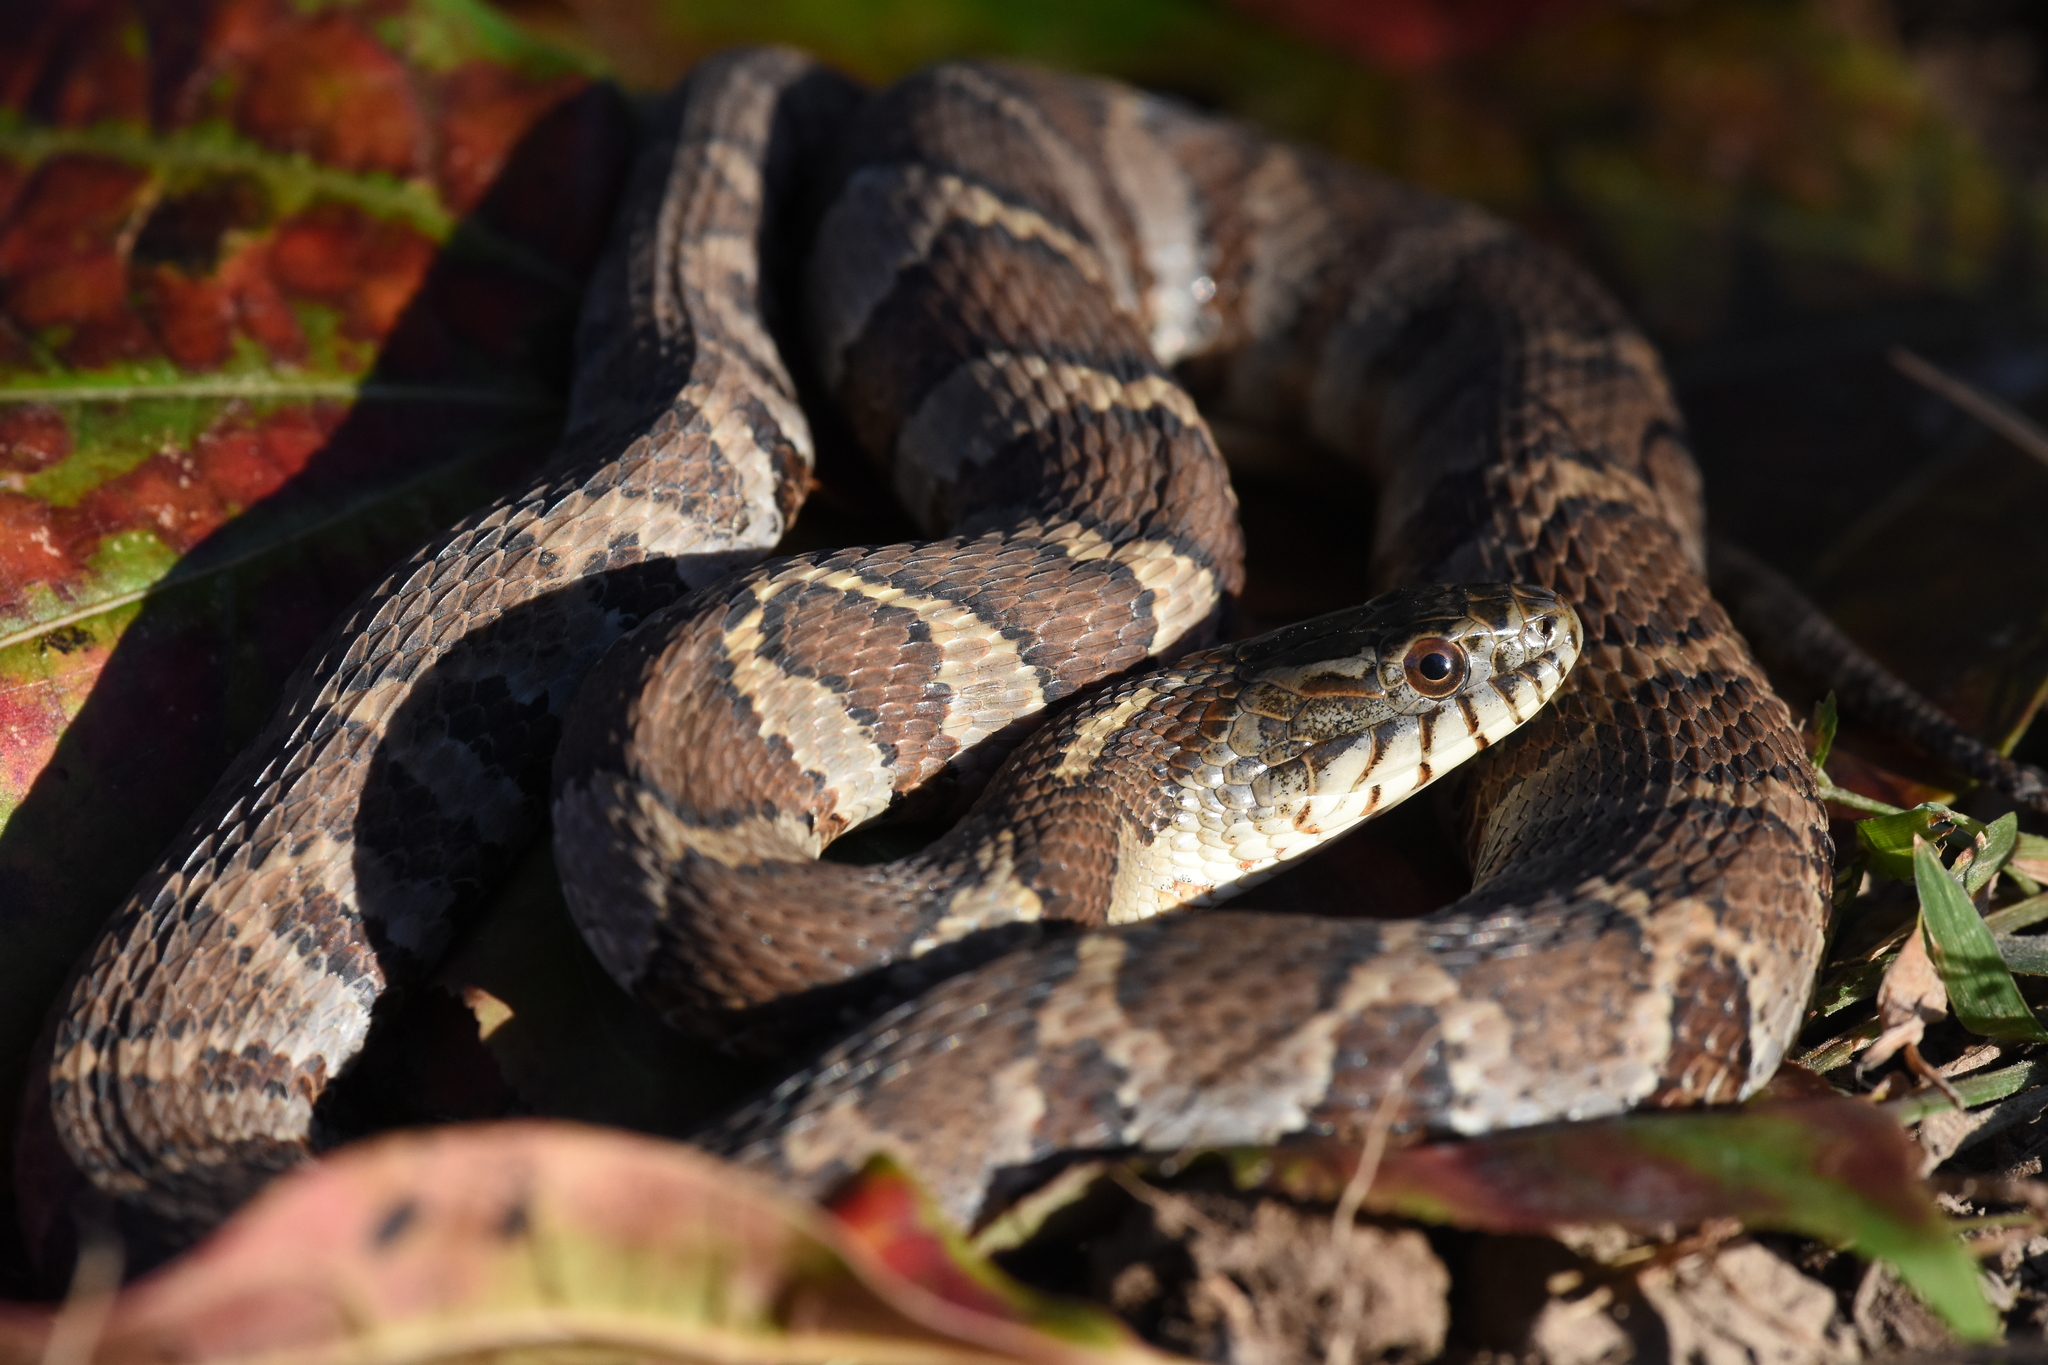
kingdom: Animalia
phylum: Chordata
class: Squamata
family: Colubridae
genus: Nerodia
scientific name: Nerodia sipedon
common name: Northern water snake
